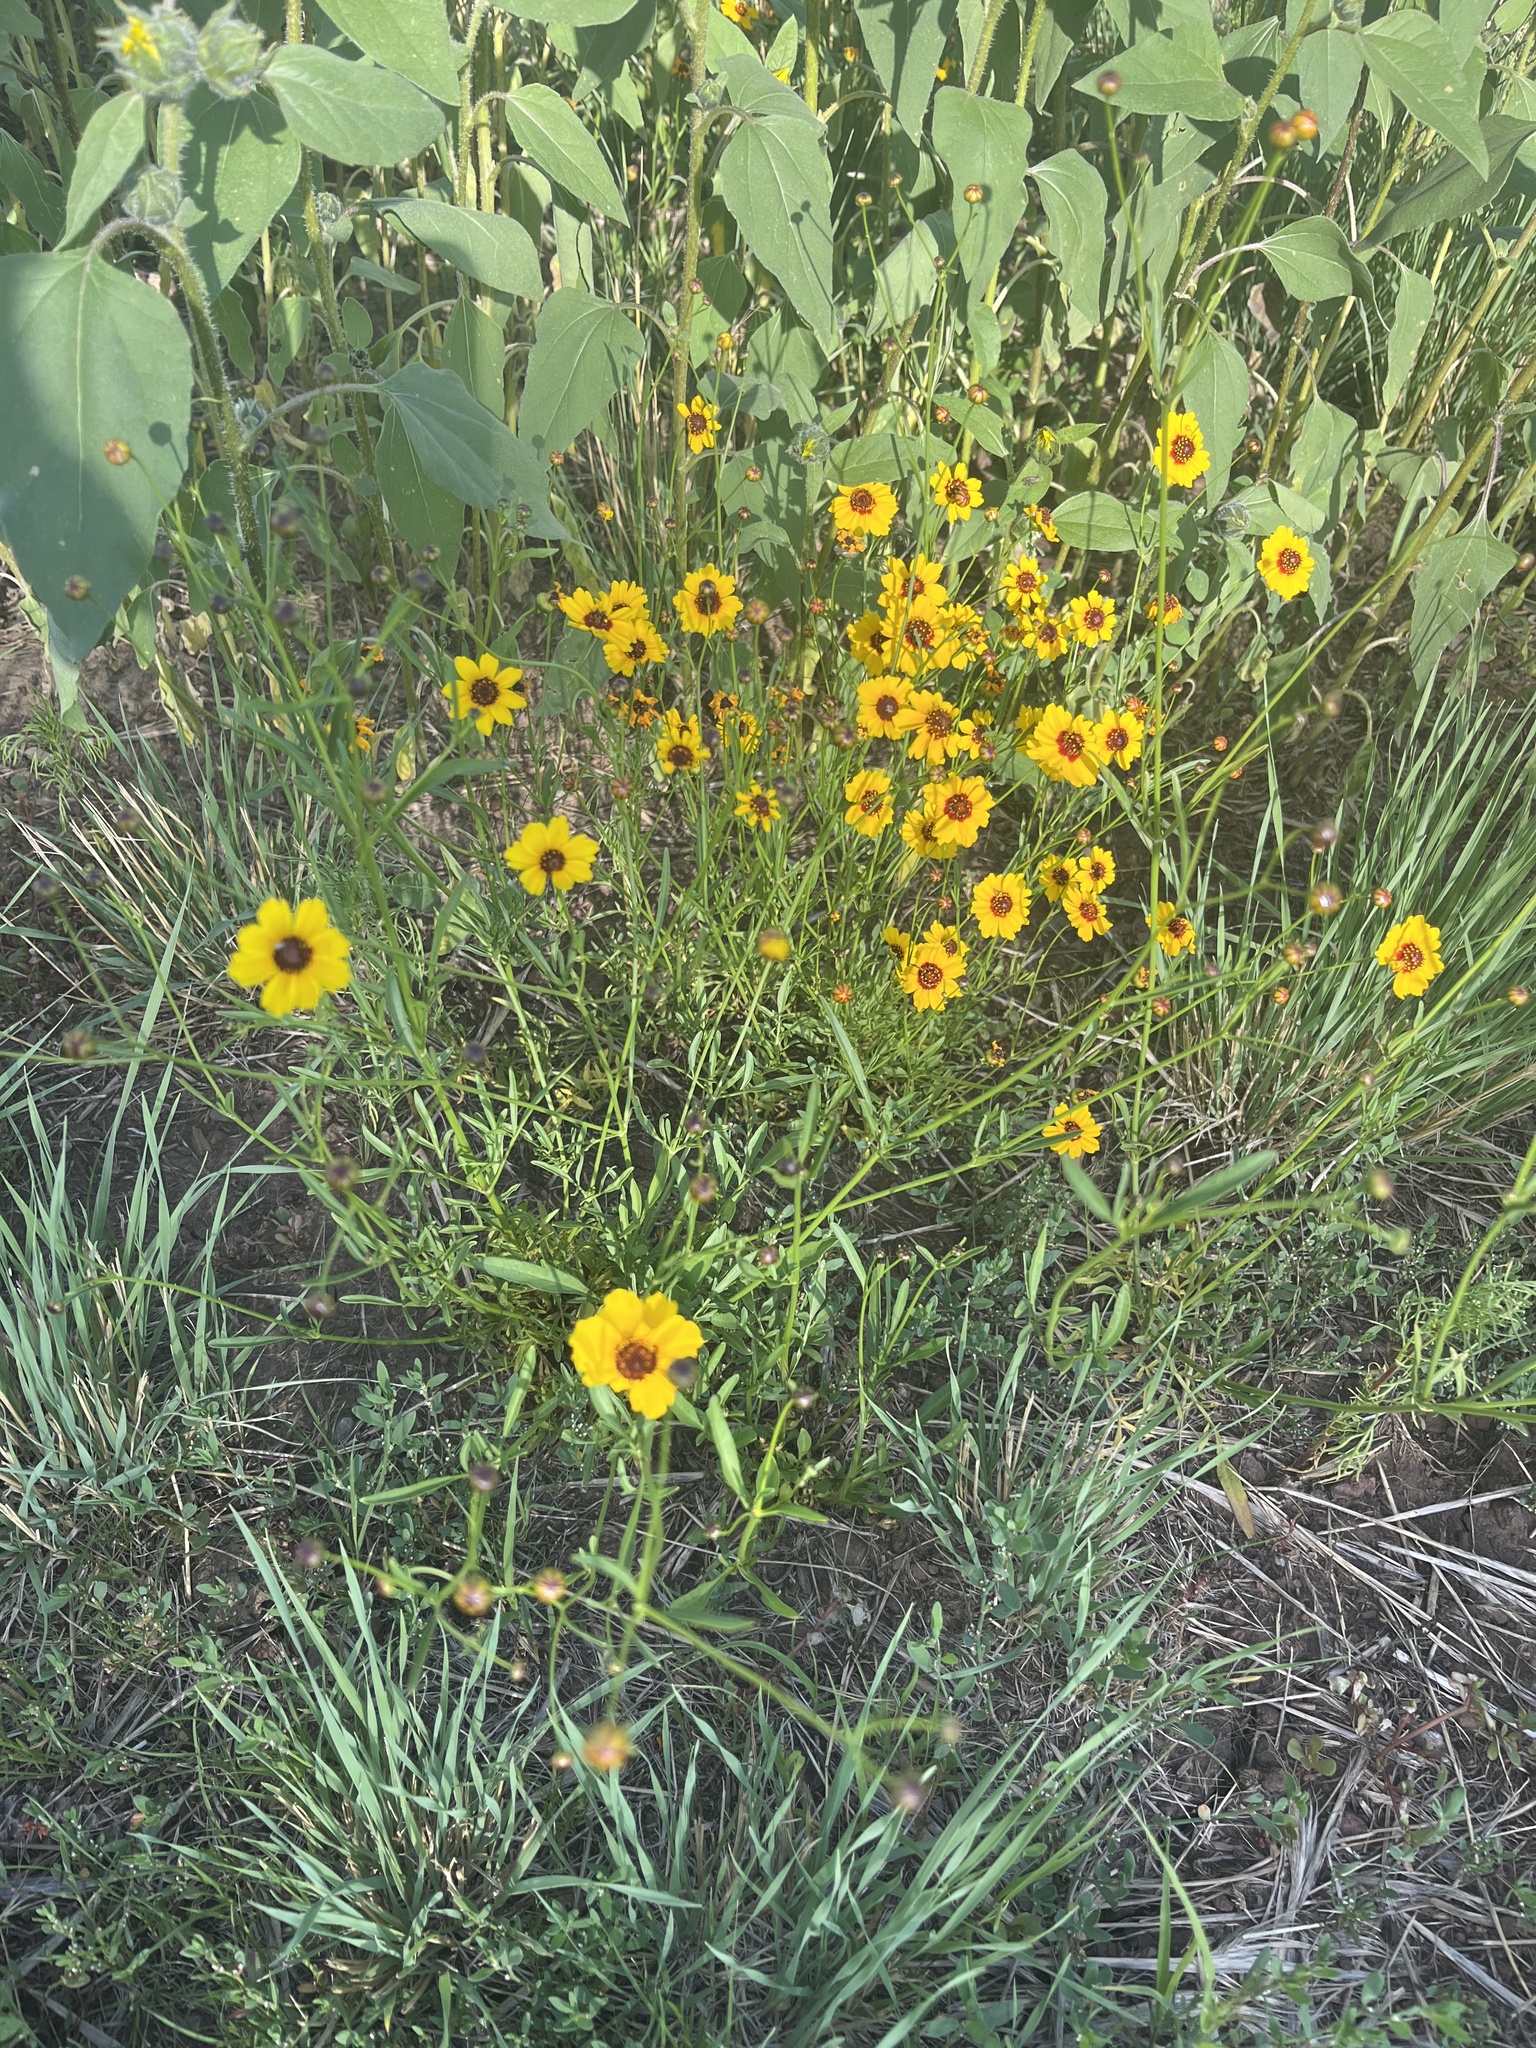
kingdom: Plantae
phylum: Tracheophyta
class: Magnoliopsida
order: Asterales
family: Asteraceae
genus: Coreopsis
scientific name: Coreopsis tinctoria
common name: Garden tickseed
